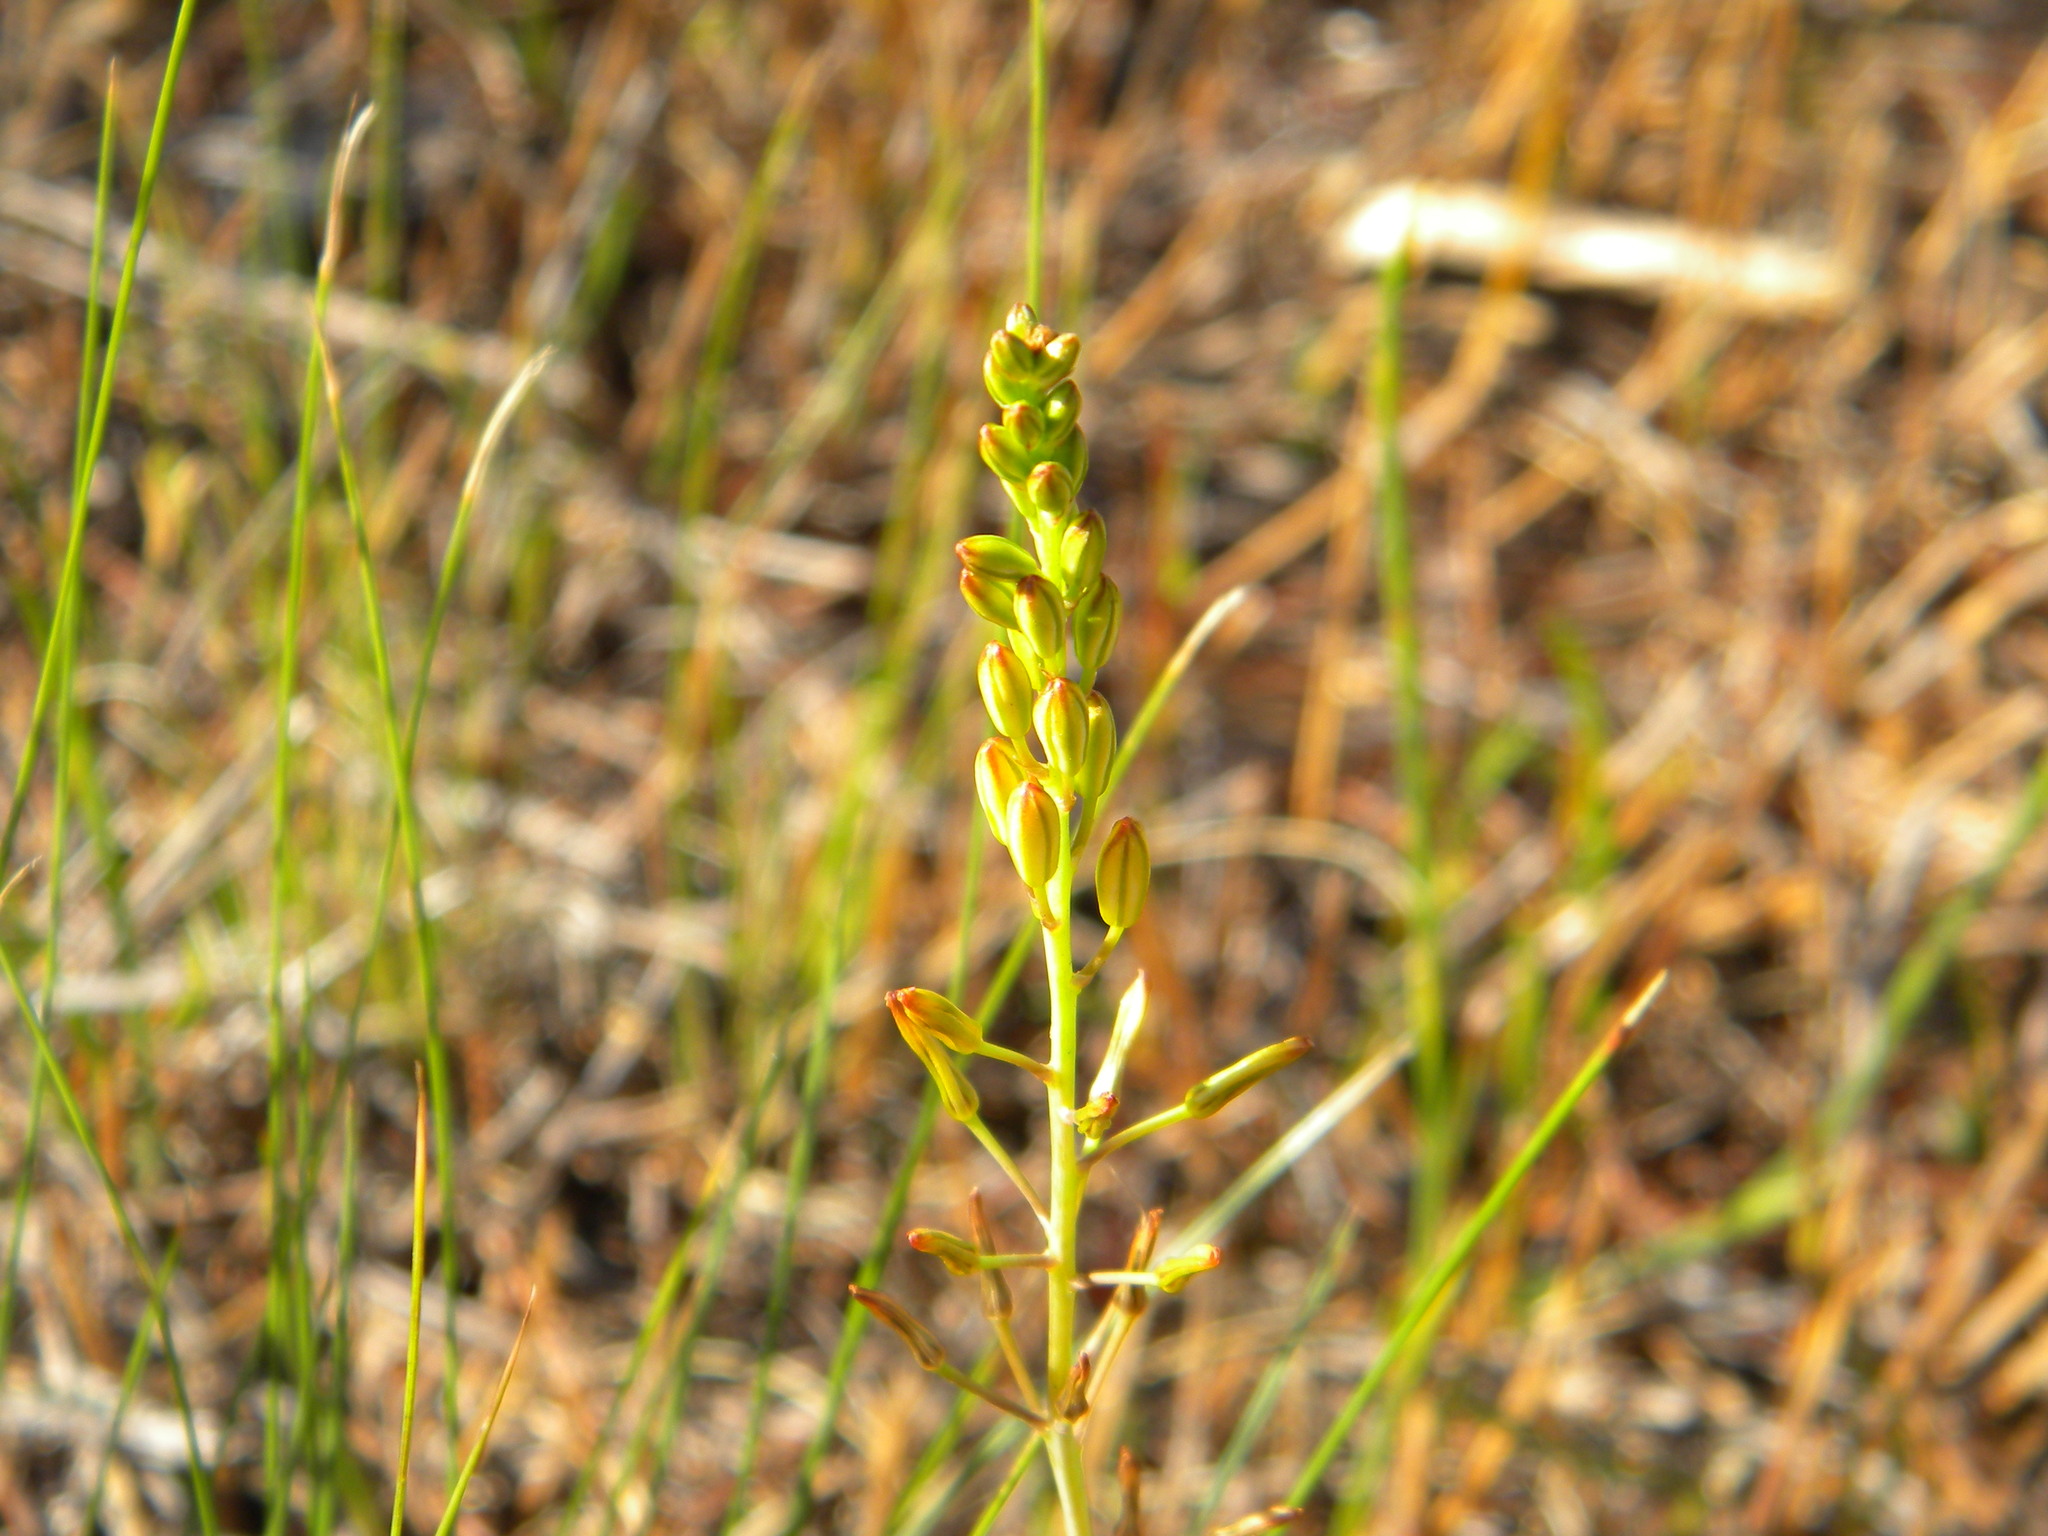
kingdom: Plantae
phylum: Tracheophyta
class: Liliopsida
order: Asparagales
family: Asphodelaceae
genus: Bulbine
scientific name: Bulbine favosa
